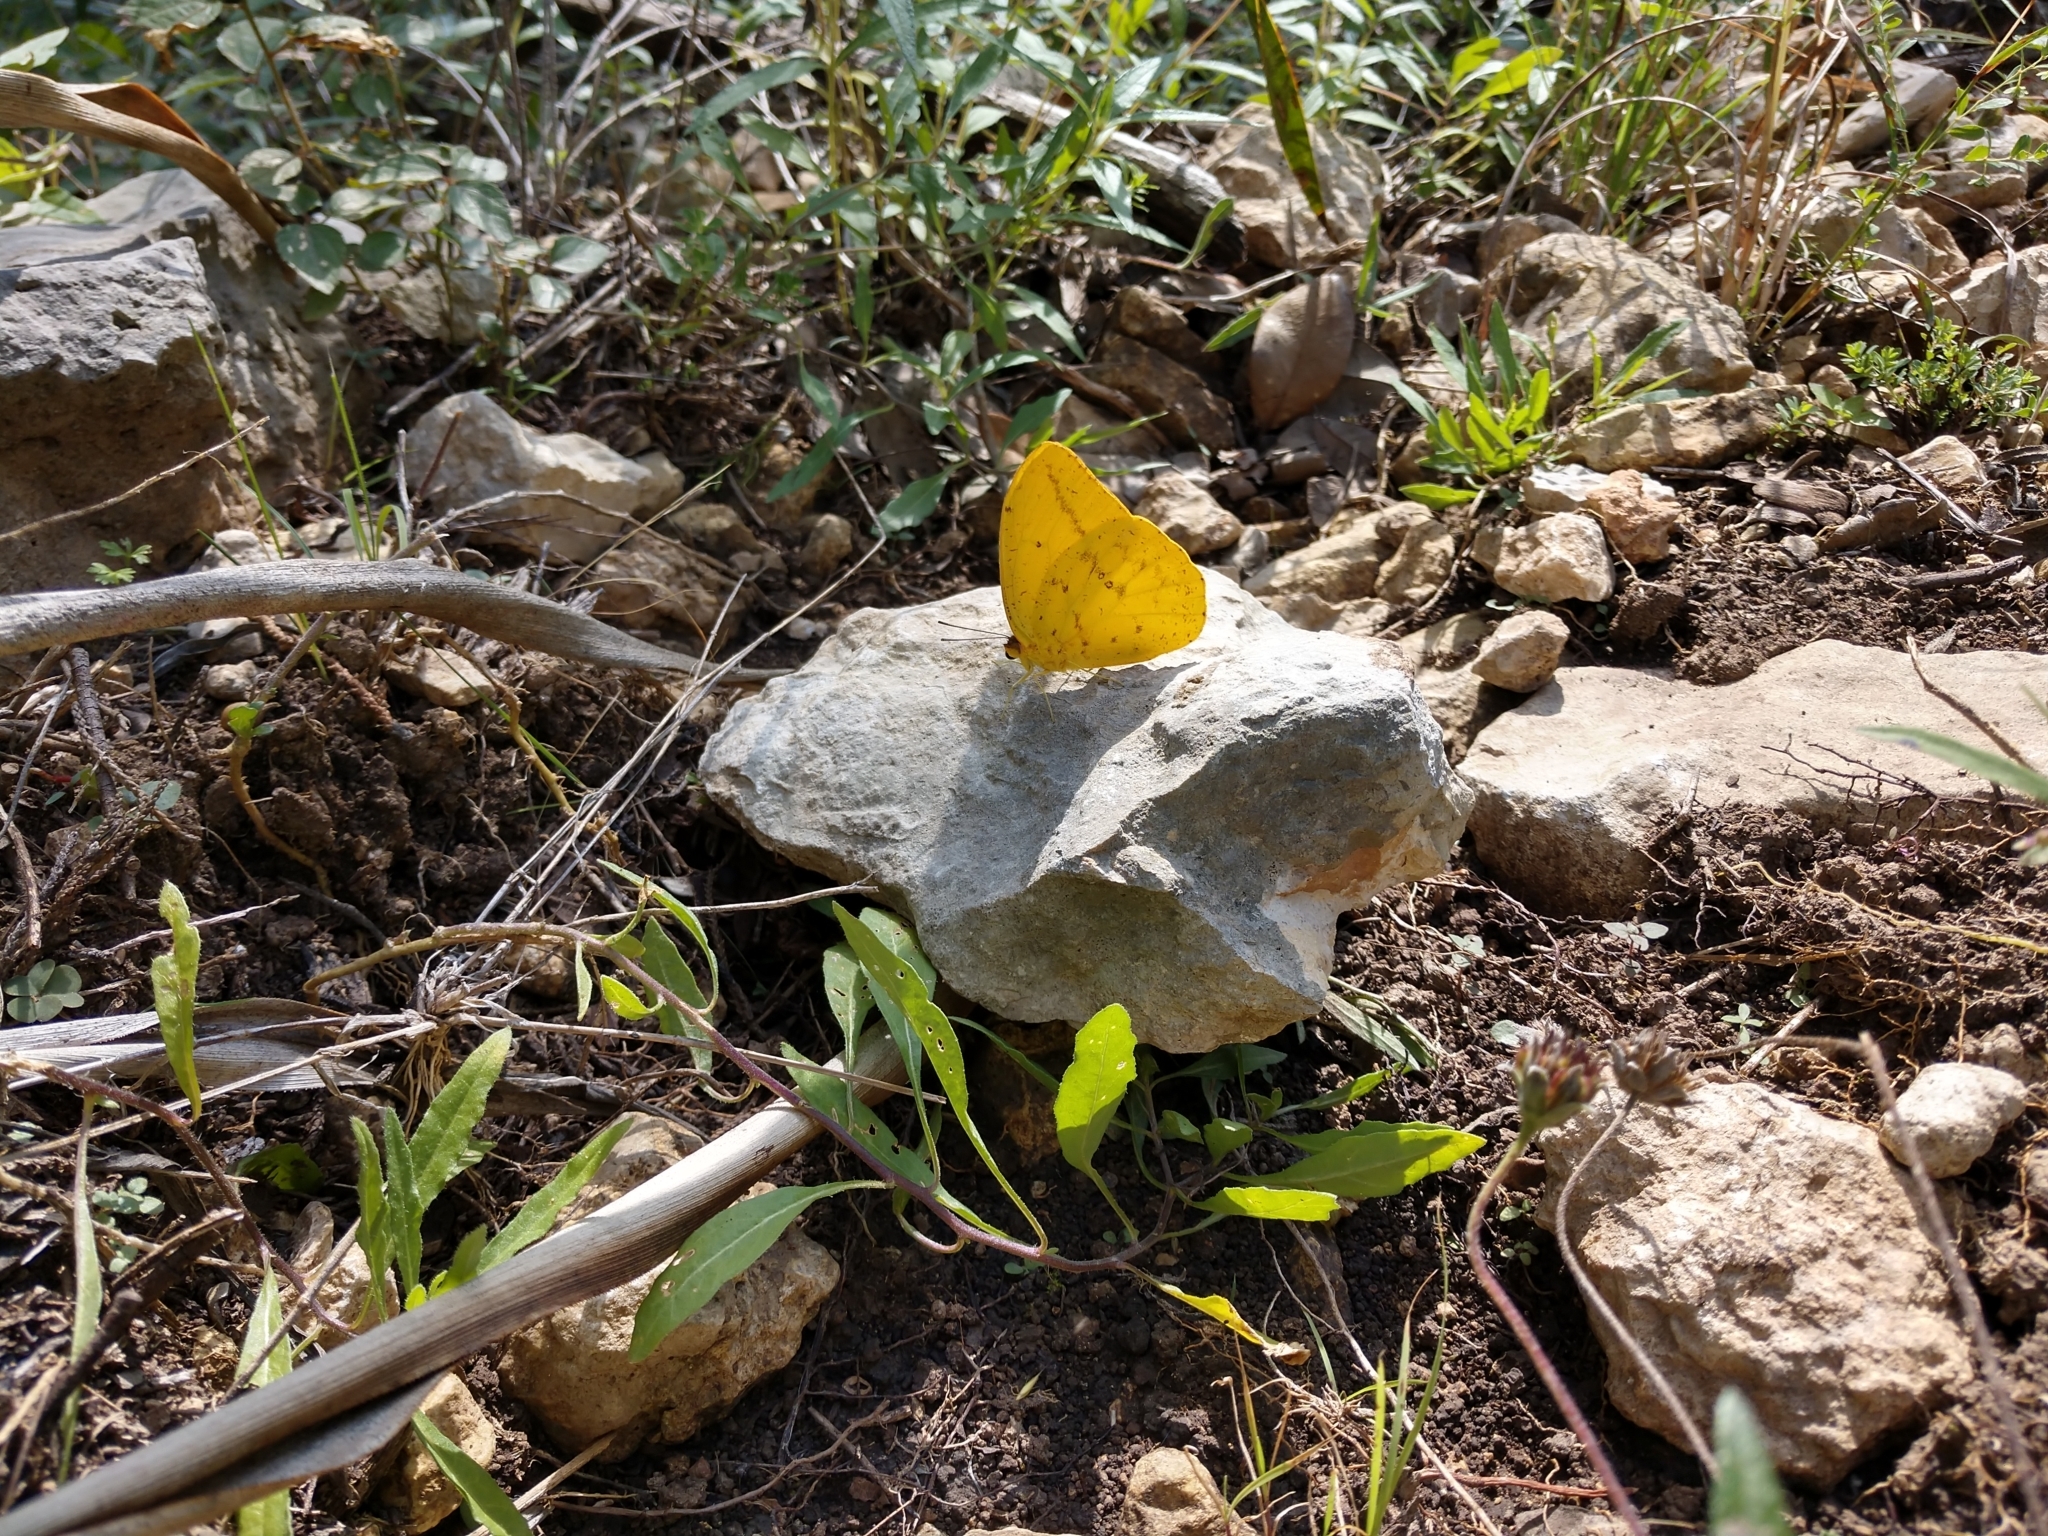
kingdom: Animalia
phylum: Arthropoda
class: Insecta
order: Lepidoptera
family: Pieridae
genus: Phoebis
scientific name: Phoebis agarithe
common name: Large orange sulphur
